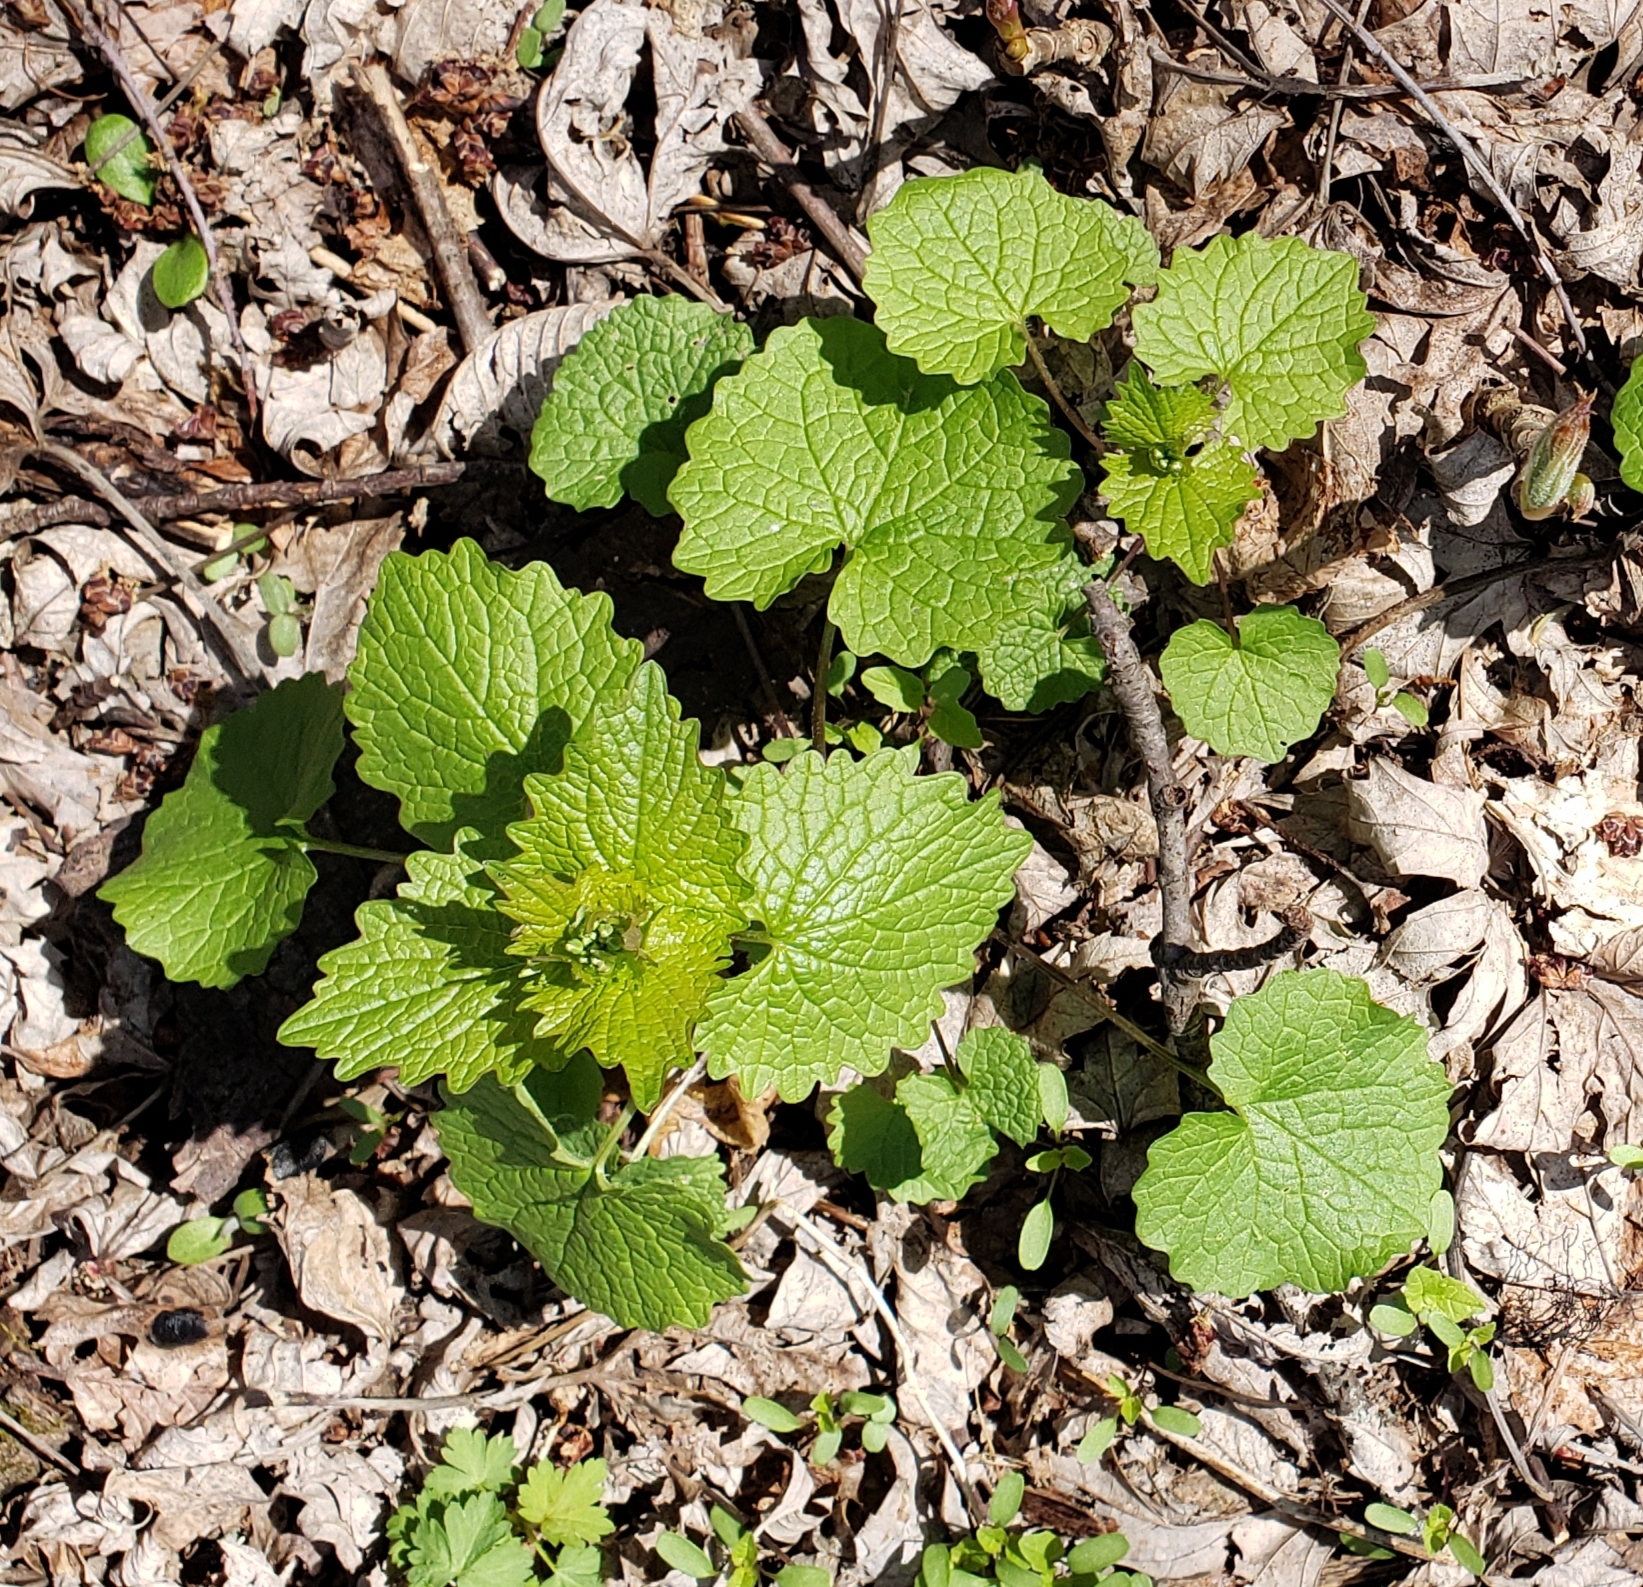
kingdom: Plantae
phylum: Tracheophyta
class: Magnoliopsida
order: Brassicales
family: Brassicaceae
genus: Alliaria
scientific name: Alliaria petiolata
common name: Garlic mustard
